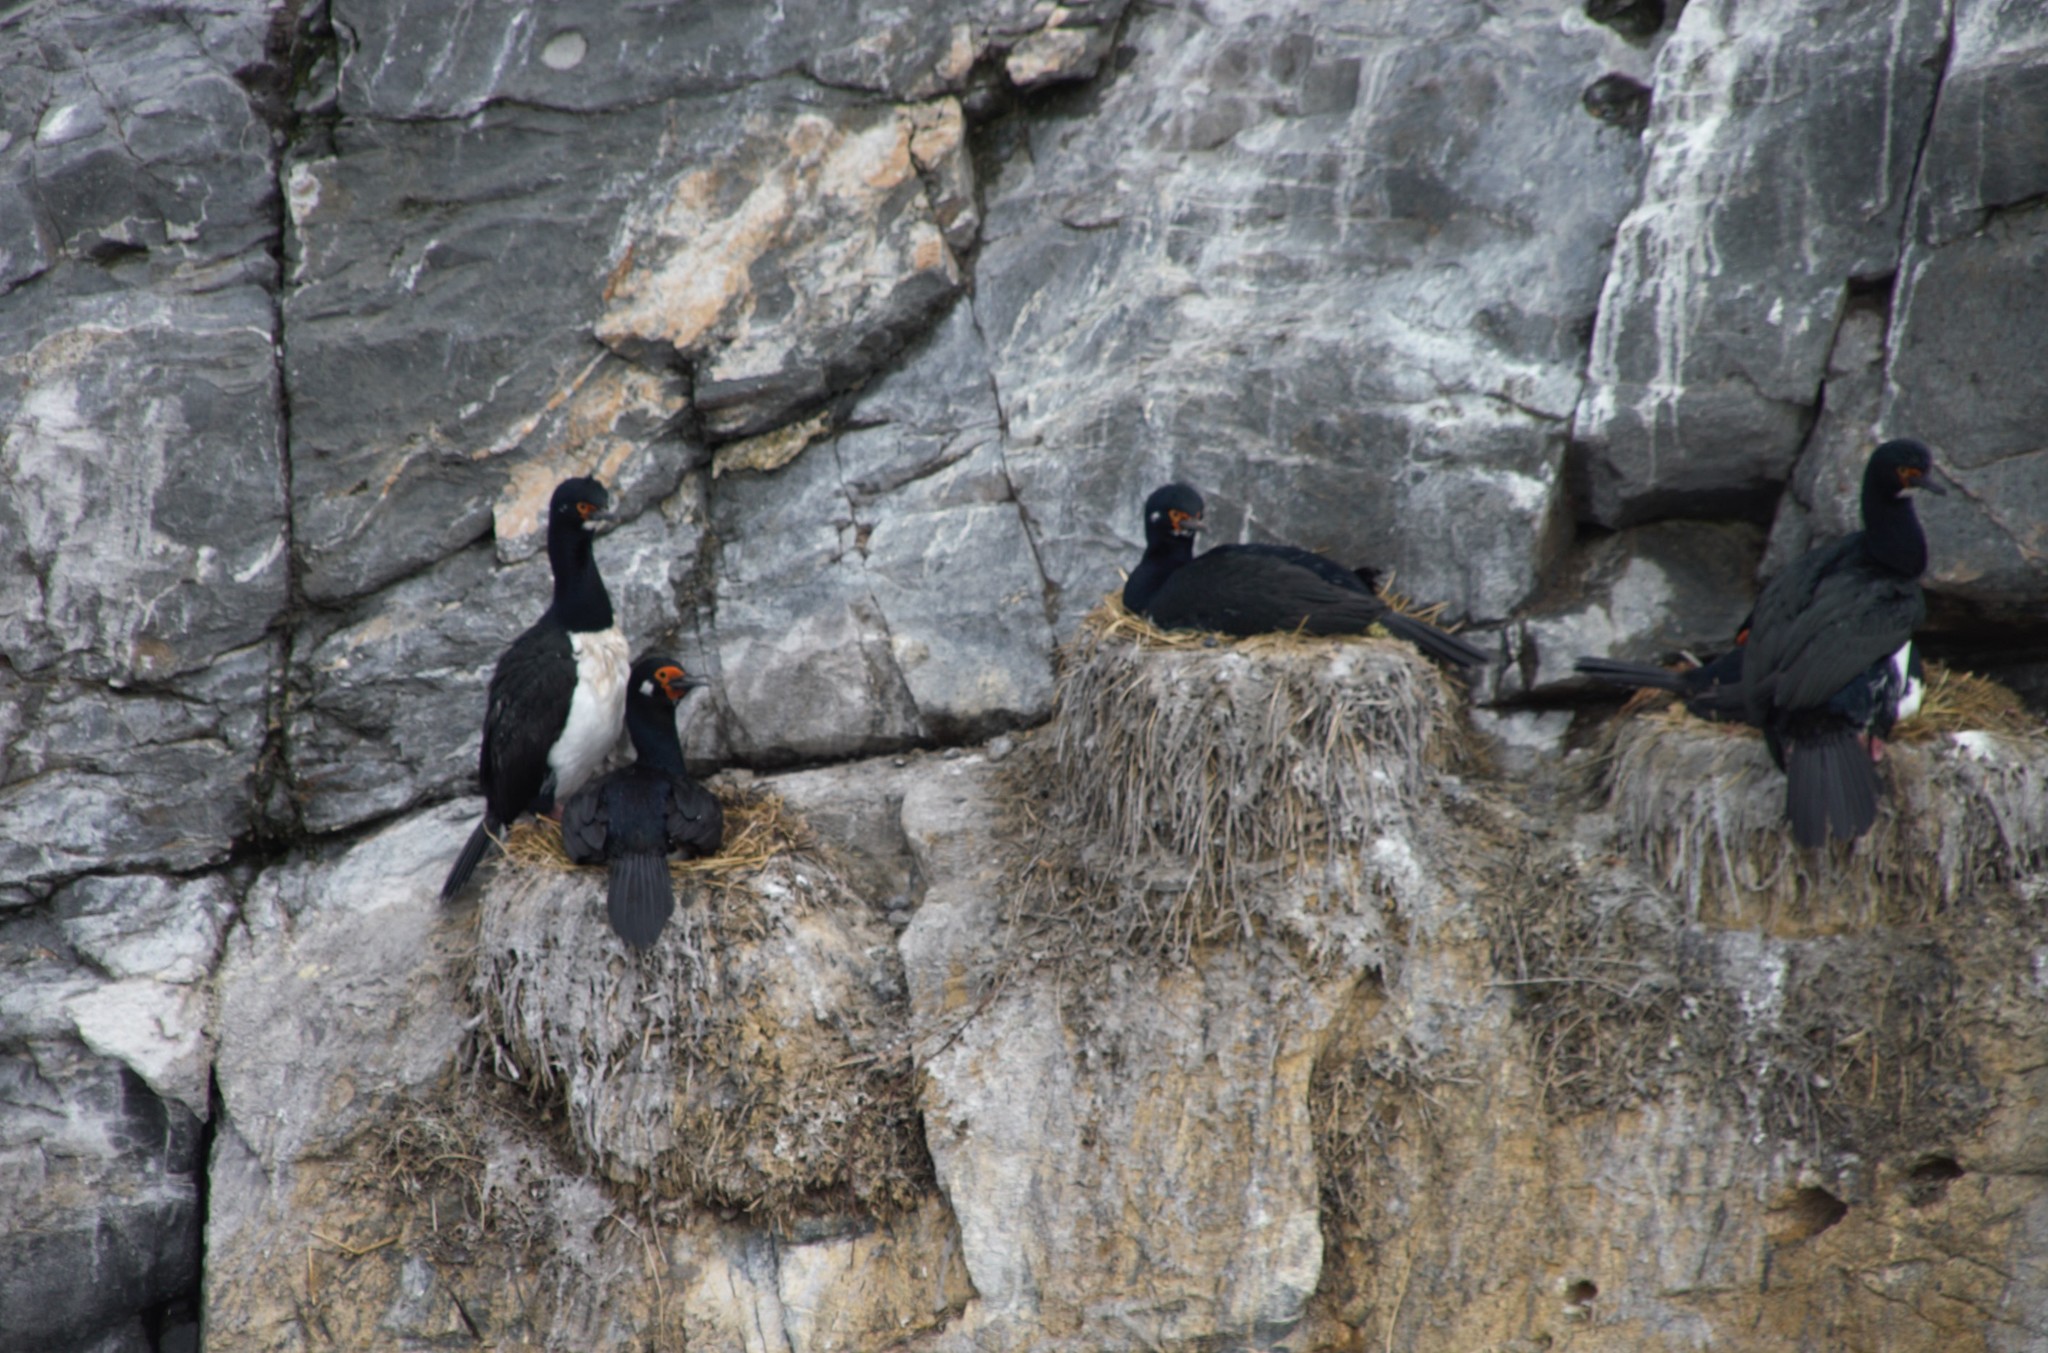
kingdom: Animalia
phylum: Chordata
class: Aves
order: Suliformes
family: Phalacrocoracidae
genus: Phalacrocorax
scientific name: Phalacrocorax magellanicus
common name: Rock shag
